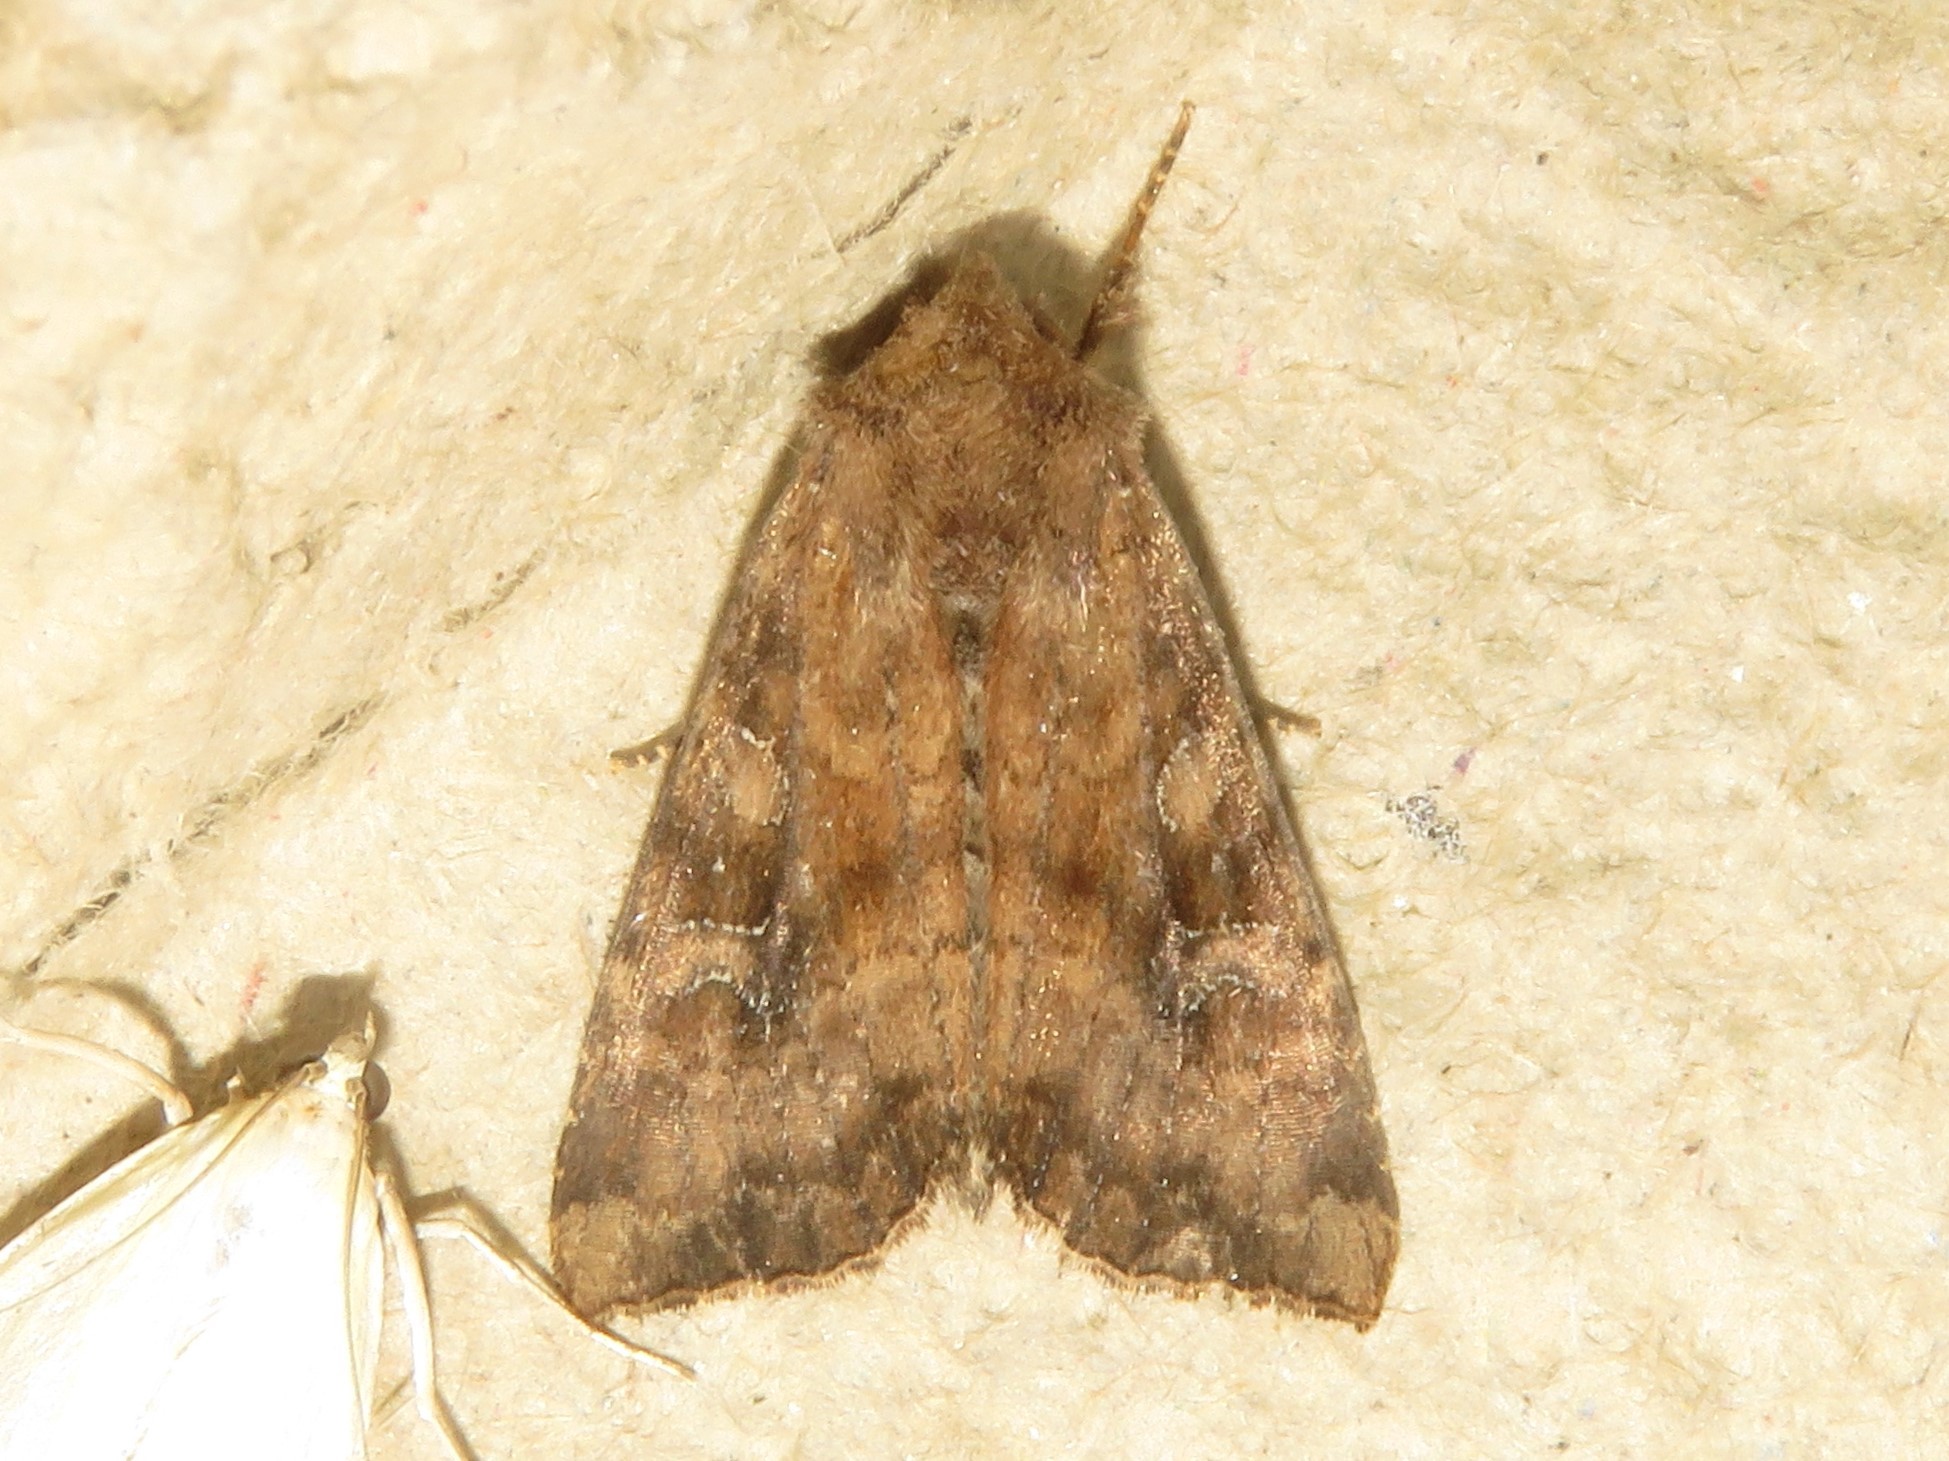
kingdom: Animalia
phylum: Arthropoda
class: Insecta
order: Lepidoptera
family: Noctuidae
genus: Loscopia
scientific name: Loscopia velata
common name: Veiled ear moth
